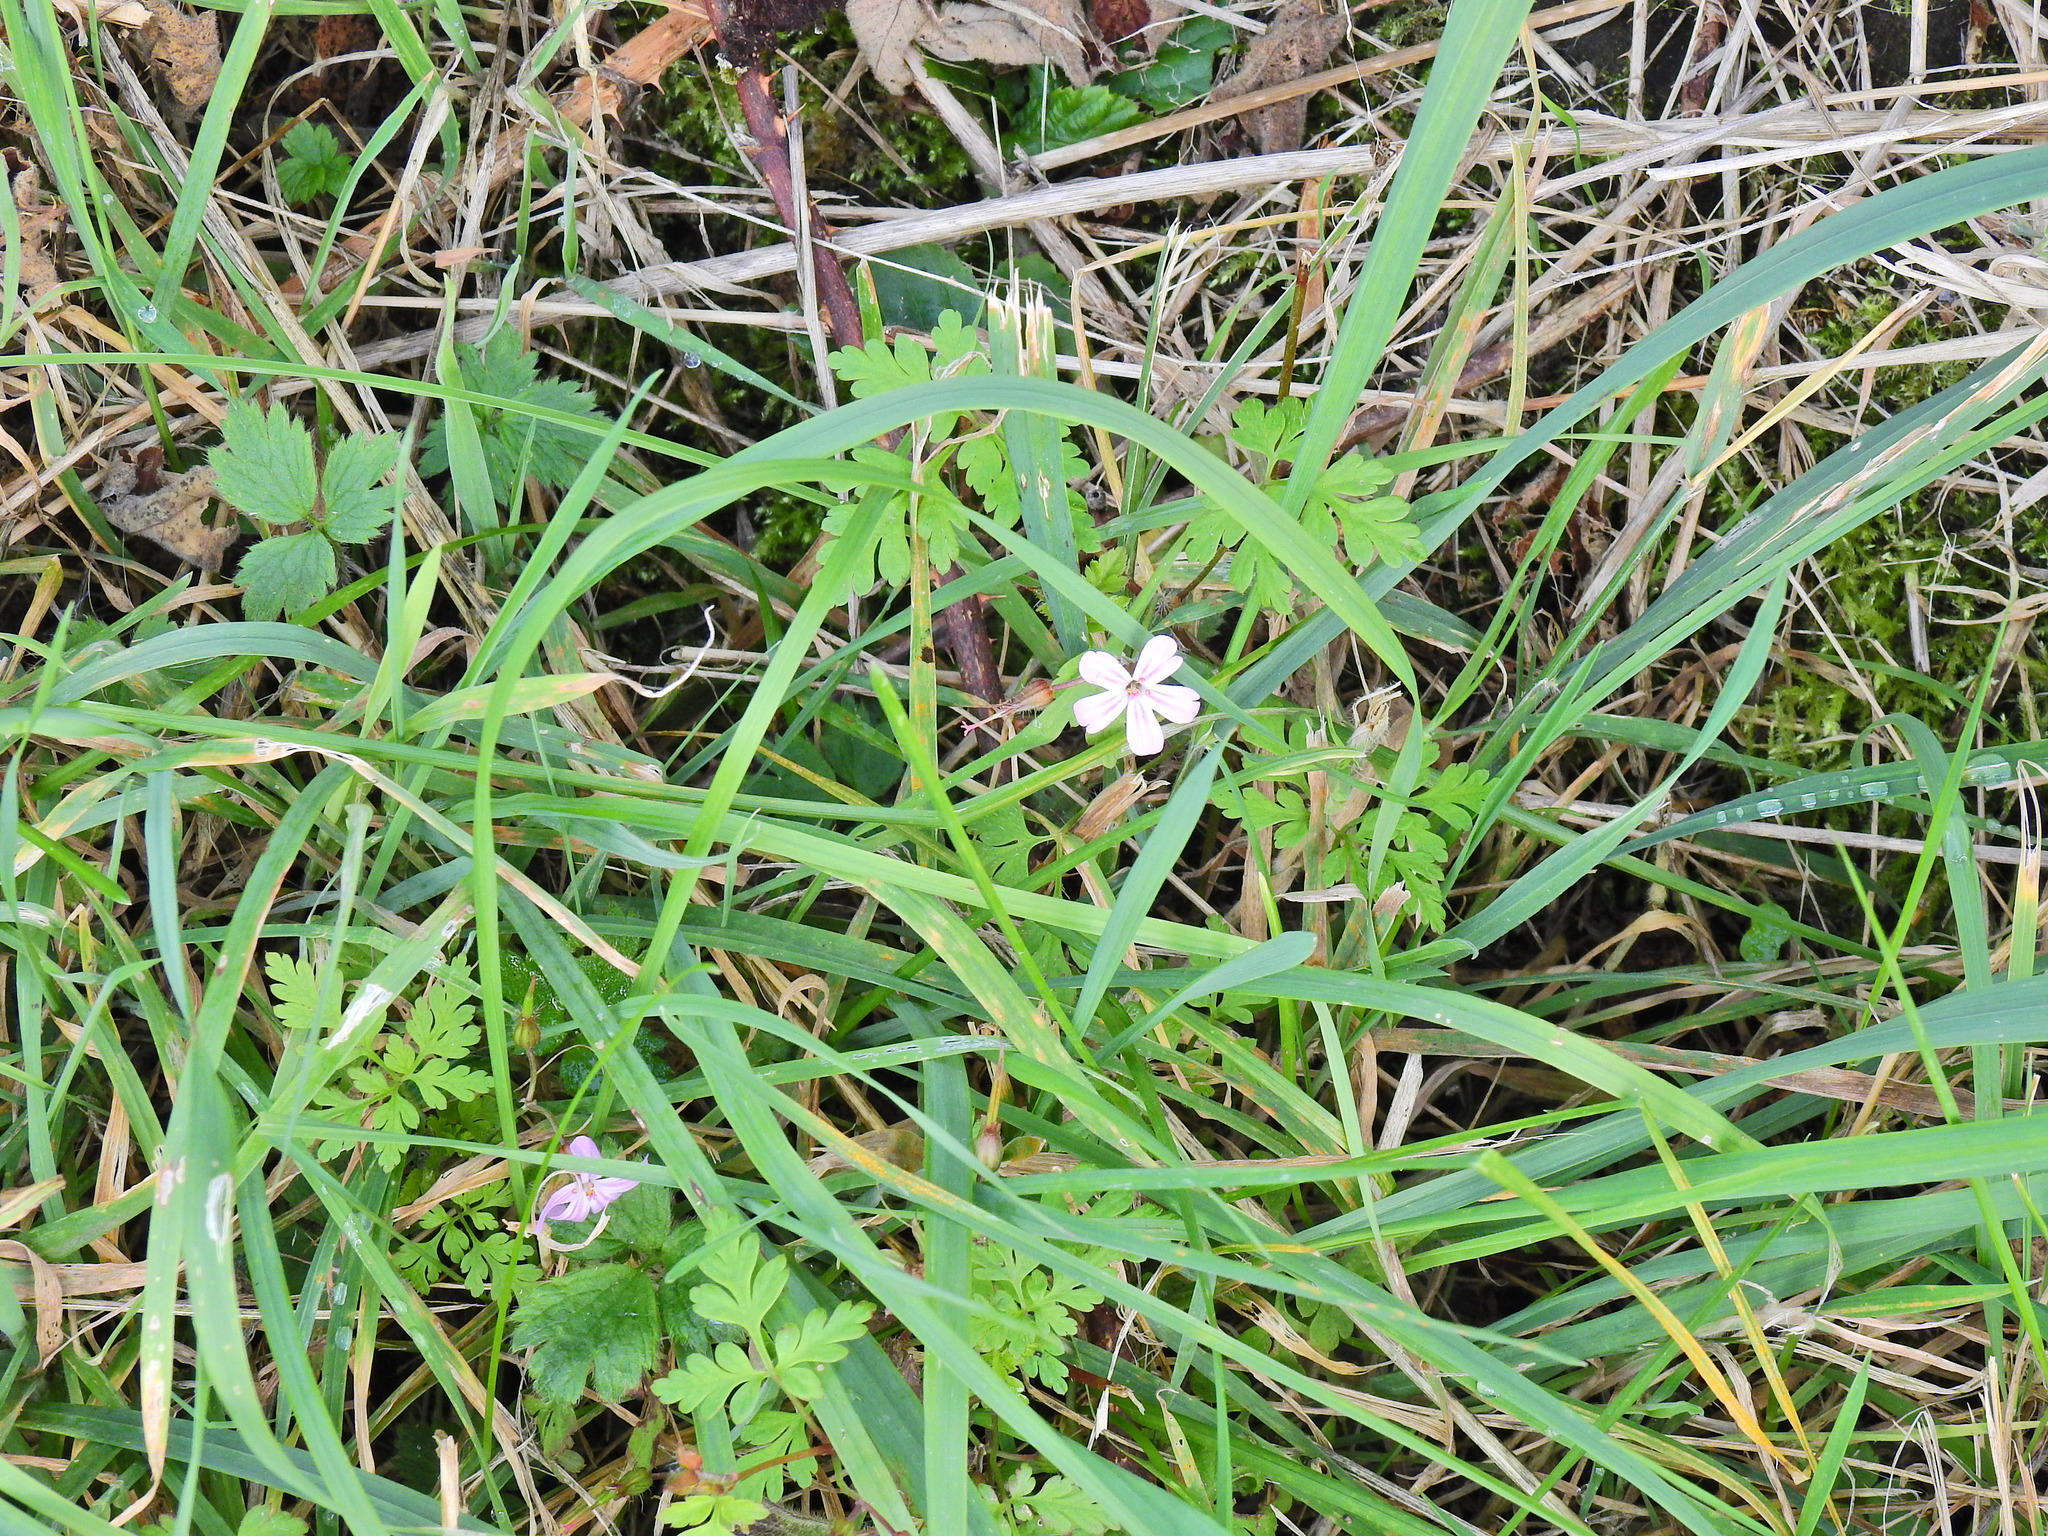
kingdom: Plantae
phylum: Tracheophyta
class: Magnoliopsida
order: Geraniales
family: Geraniaceae
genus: Geranium
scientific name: Geranium robertianum
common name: Herb-robert
